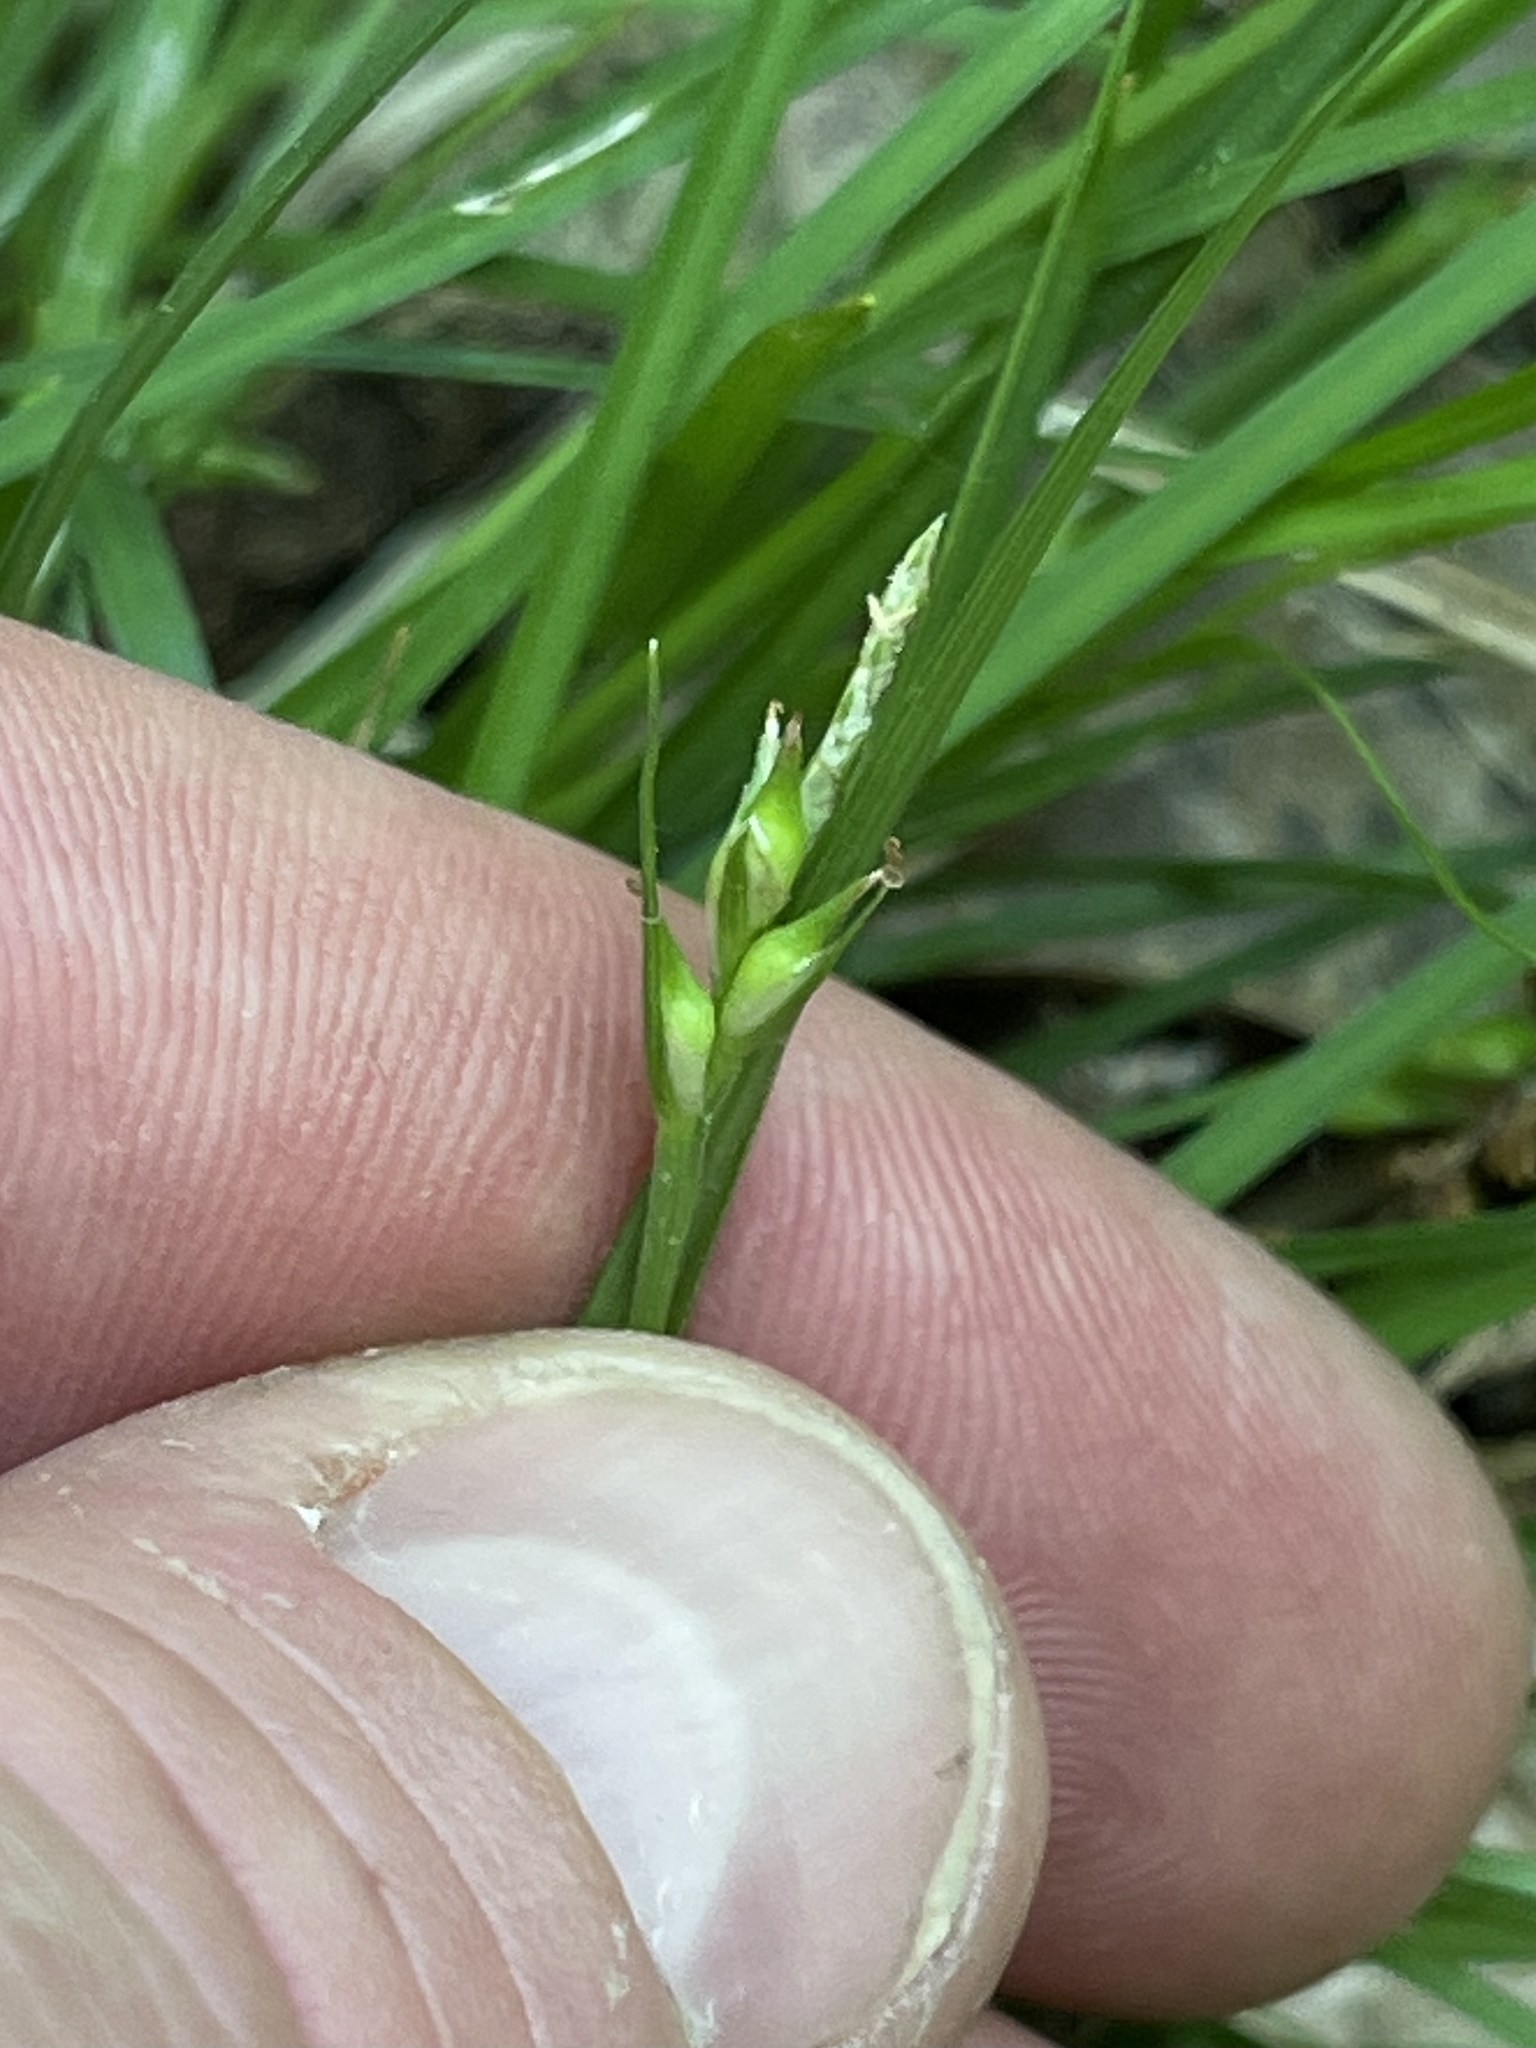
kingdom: Plantae
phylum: Tracheophyta
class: Liliopsida
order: Poales
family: Cyperaceae
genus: Carex
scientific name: Carex willdenowii
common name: Willdenow's sedge
